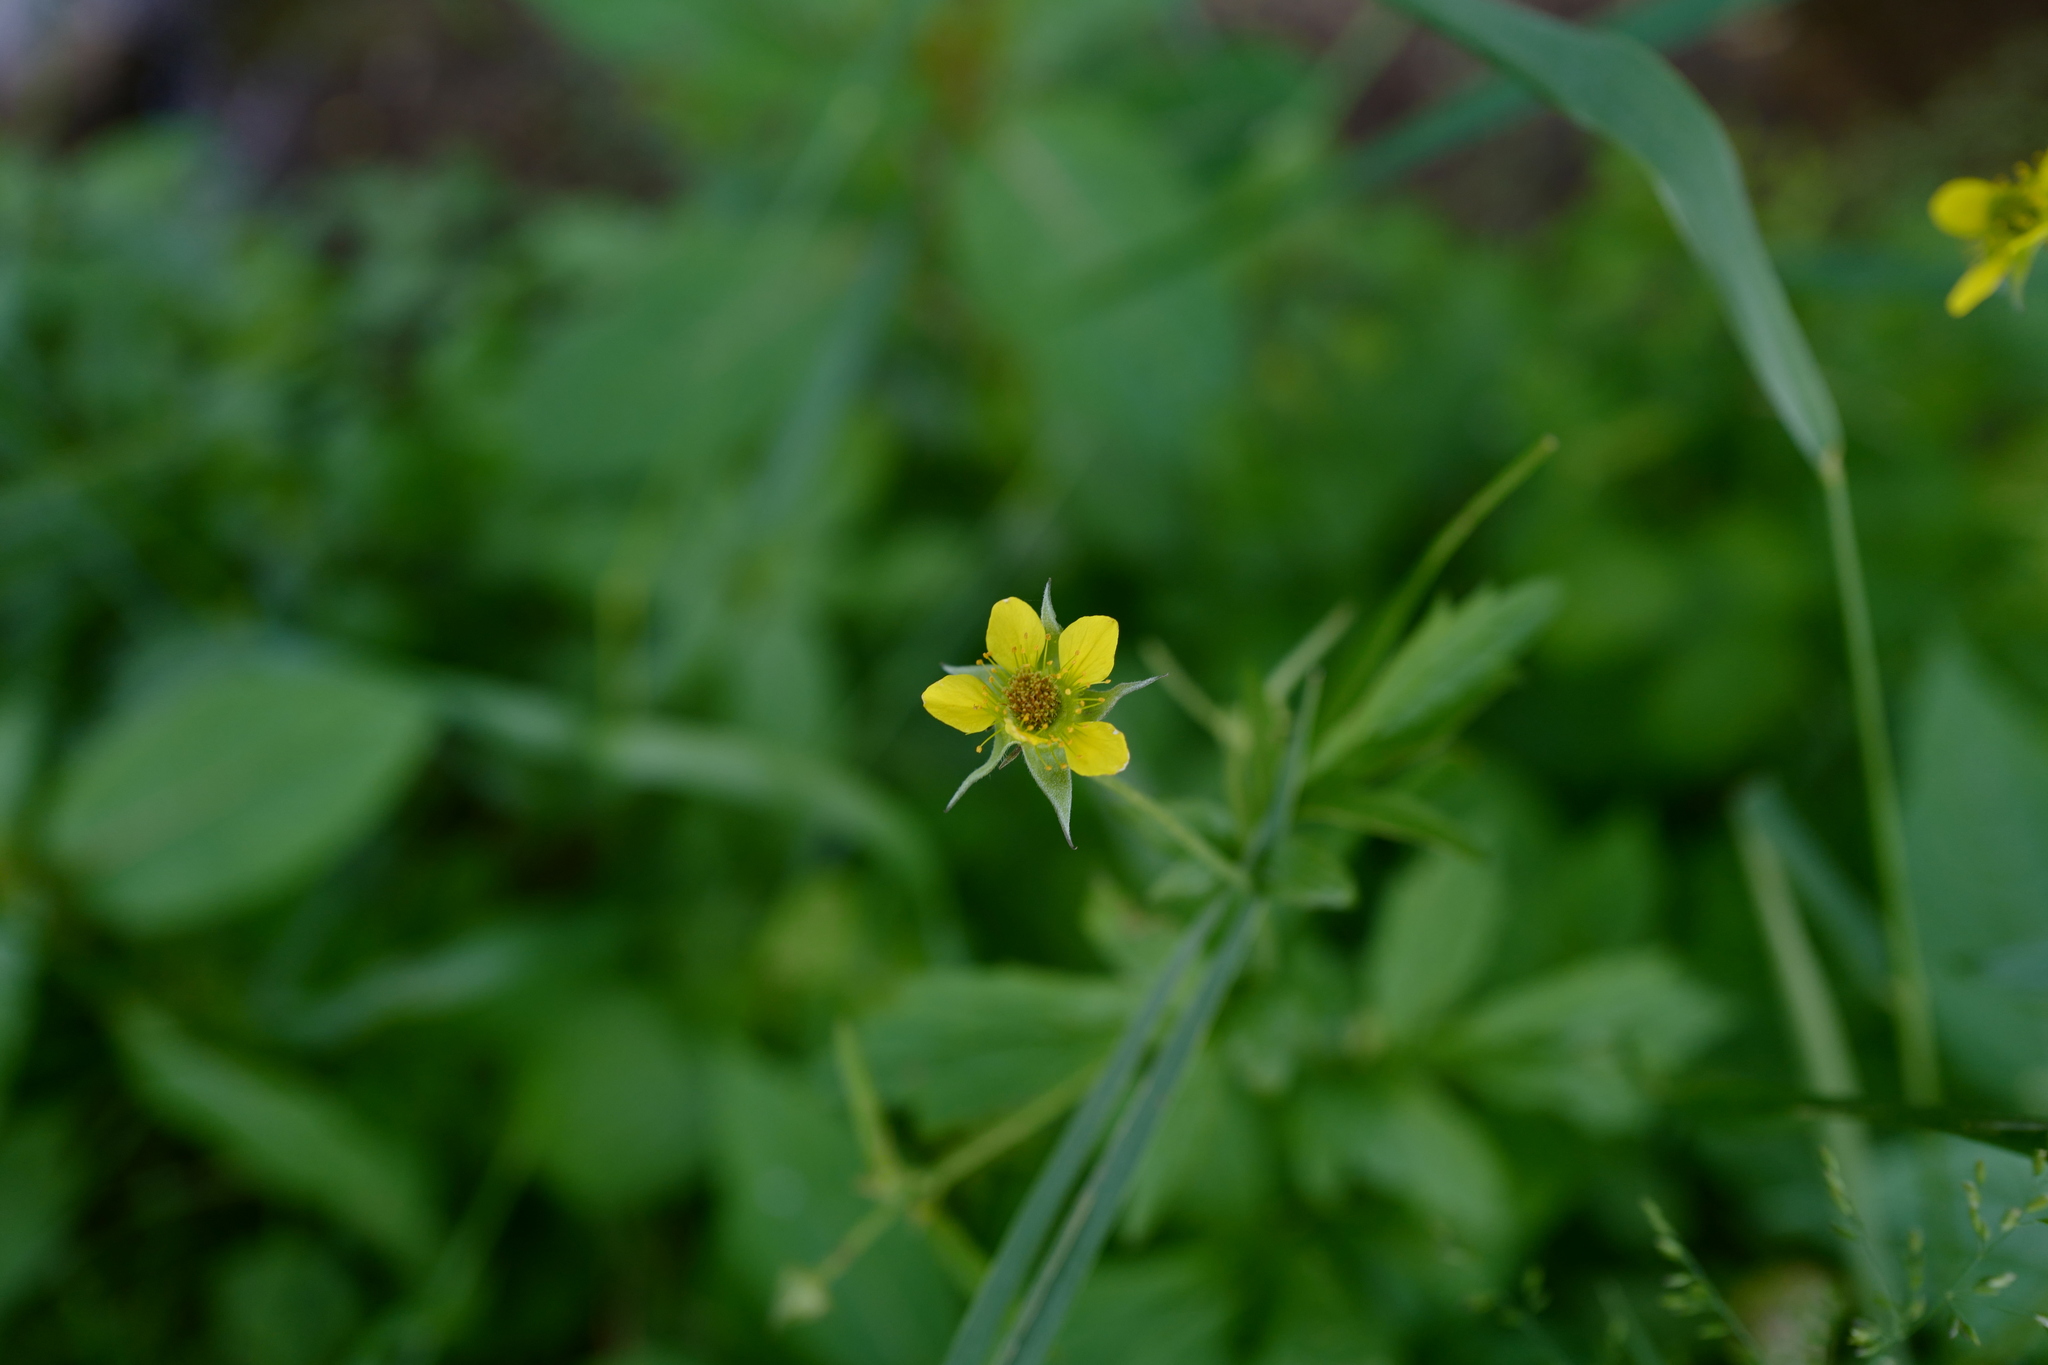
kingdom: Plantae
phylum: Tracheophyta
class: Magnoliopsida
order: Rosales
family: Rosaceae
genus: Geum
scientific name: Geum urbanum
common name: Wood avens
